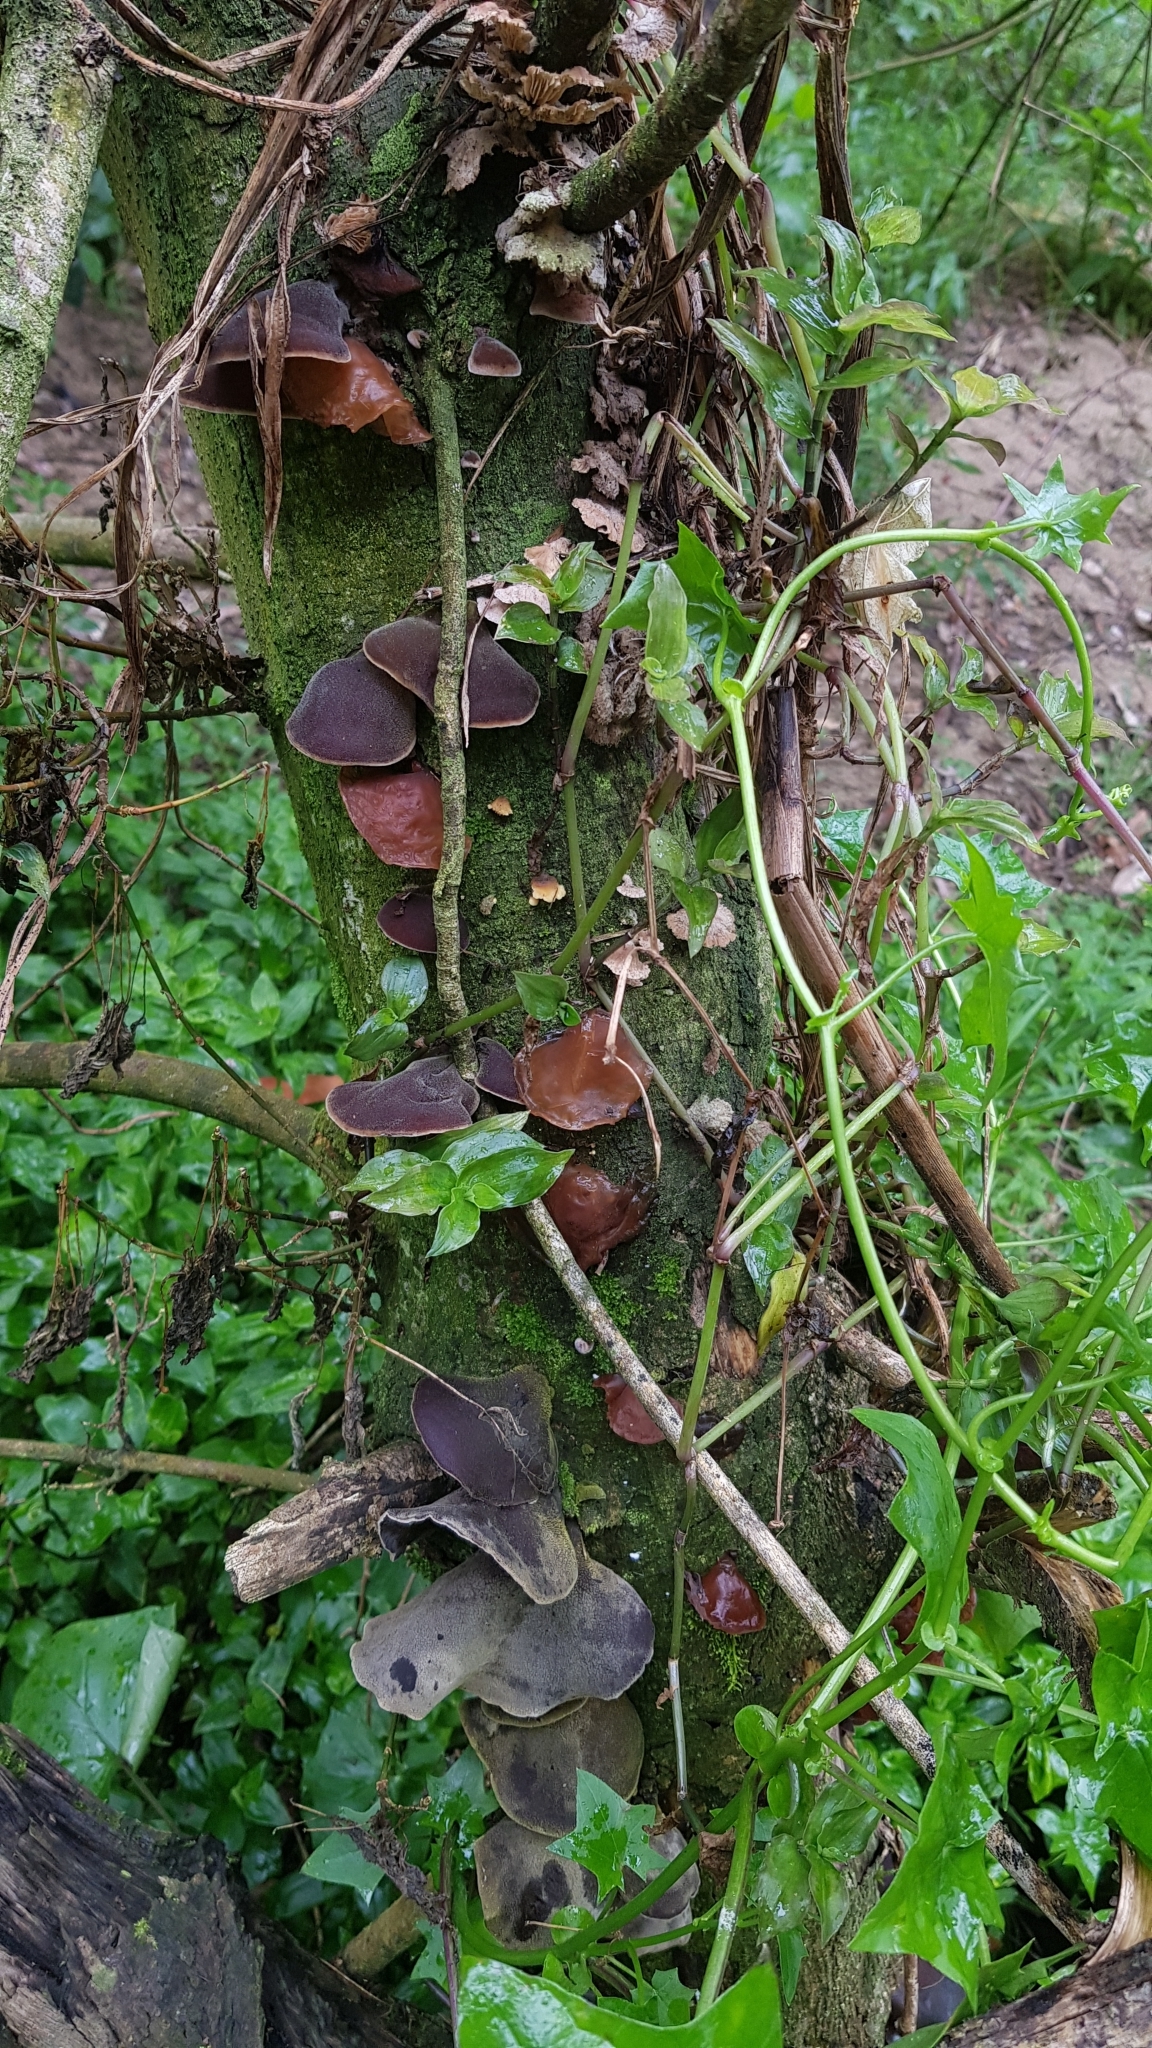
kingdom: Fungi
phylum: Basidiomycota
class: Agaricomycetes
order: Auriculariales
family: Auriculariaceae
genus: Auricularia
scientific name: Auricularia cornea
